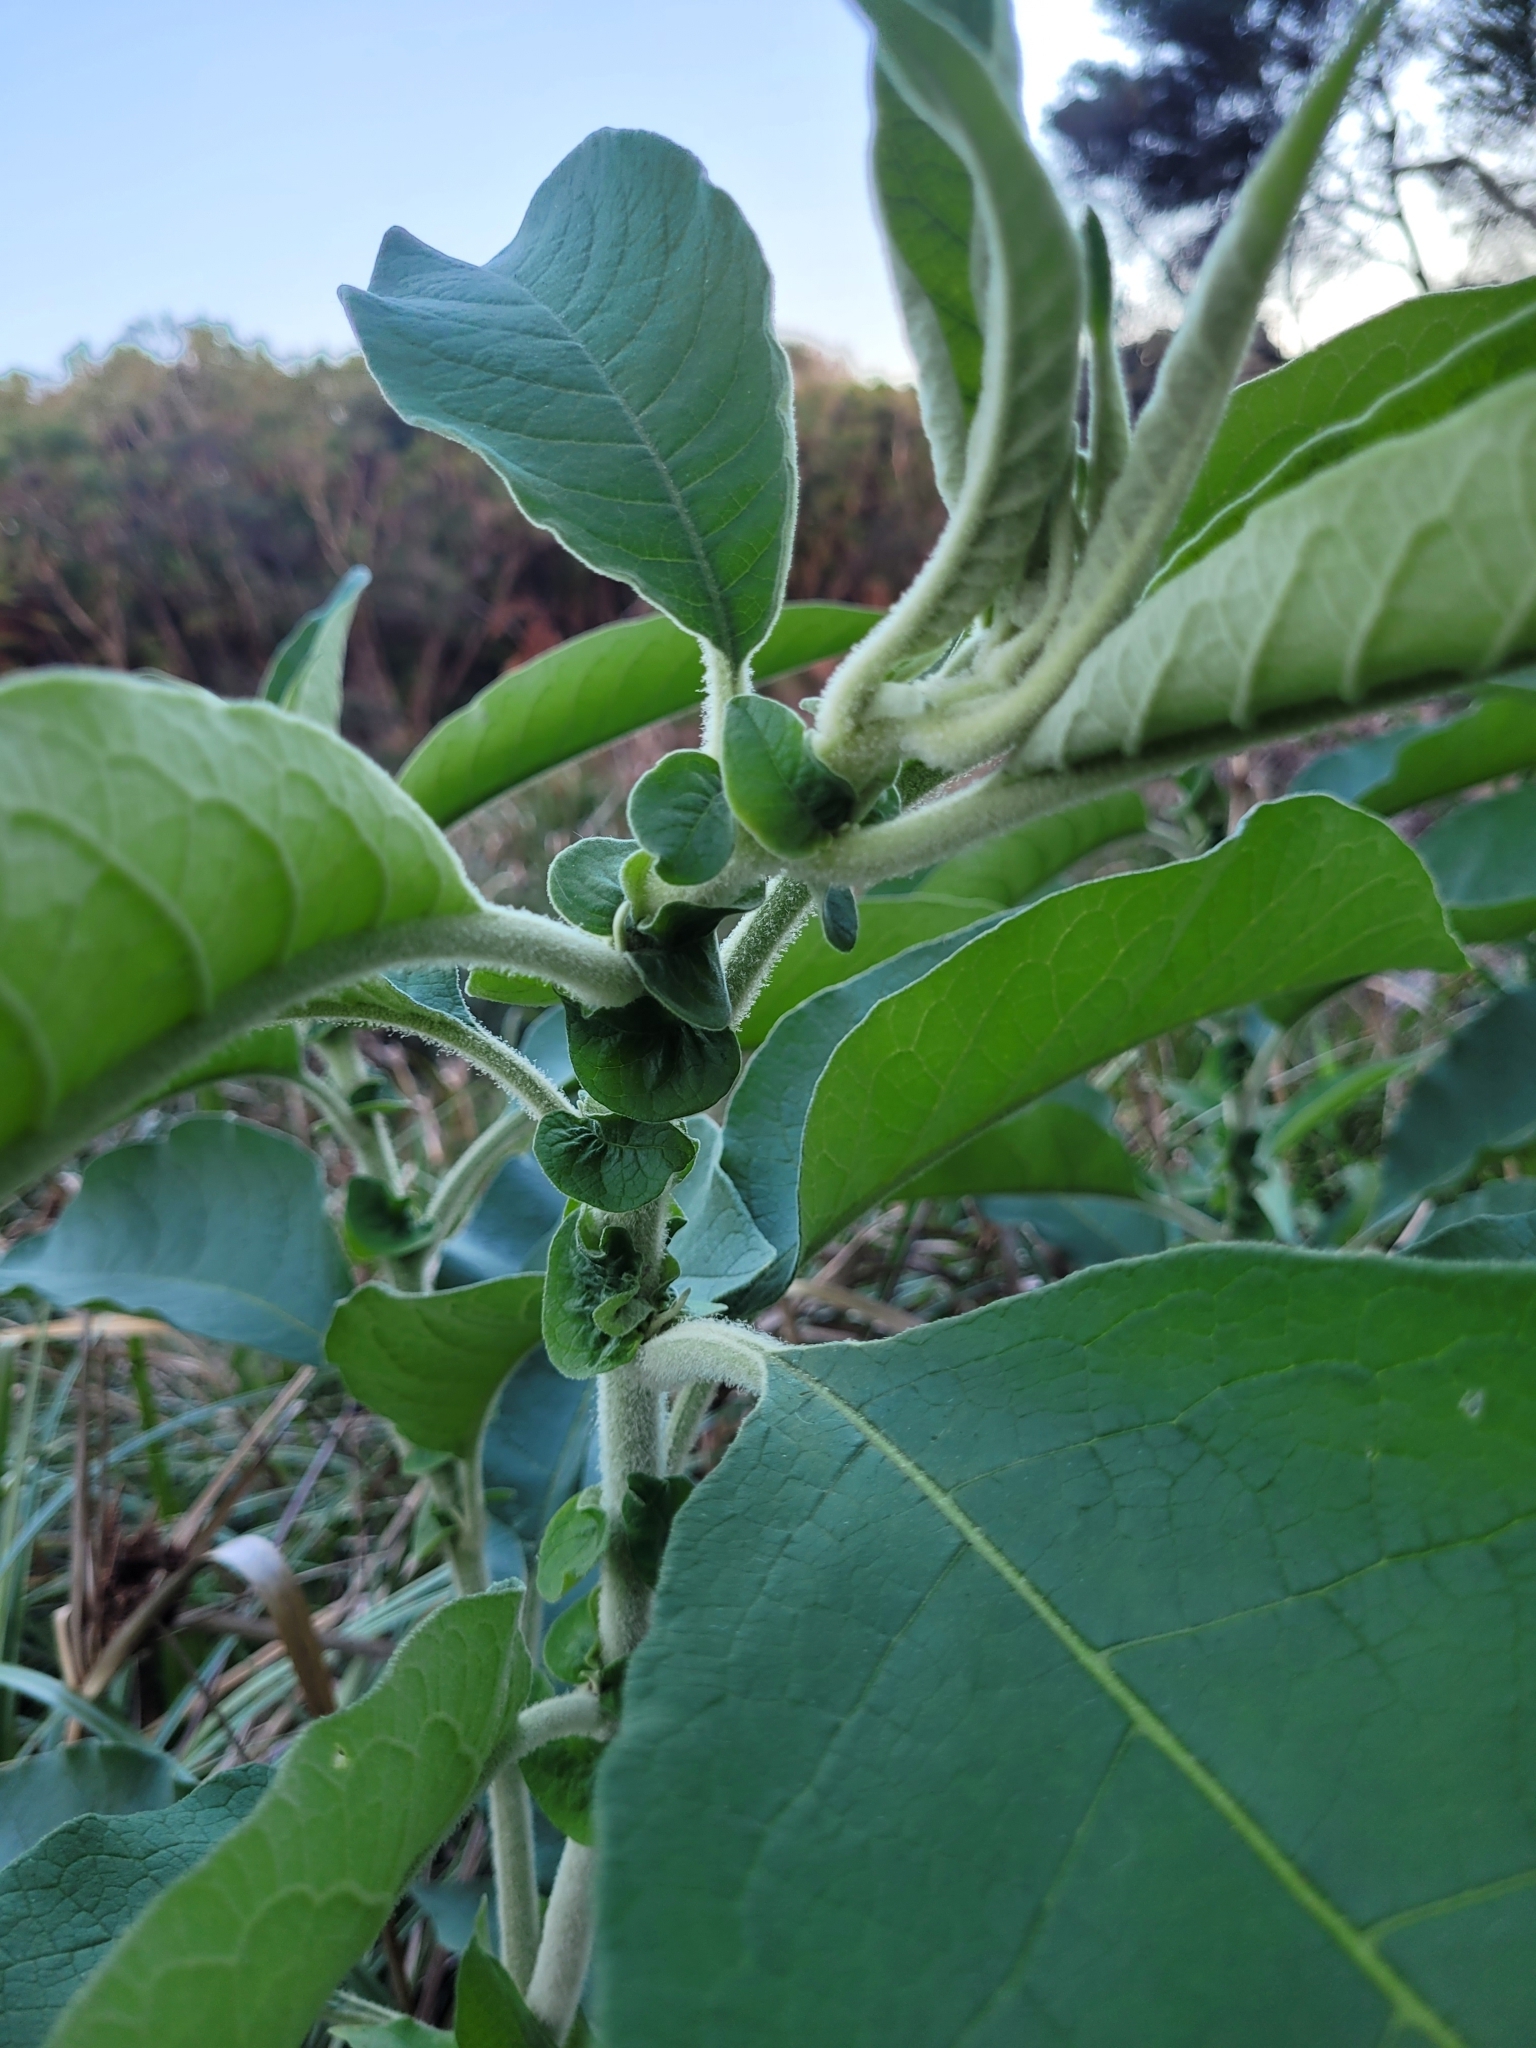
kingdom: Plantae
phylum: Tracheophyta
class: Magnoliopsida
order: Solanales
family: Solanaceae
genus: Solanum
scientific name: Solanum mauritianum
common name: Earleaf nightshade
